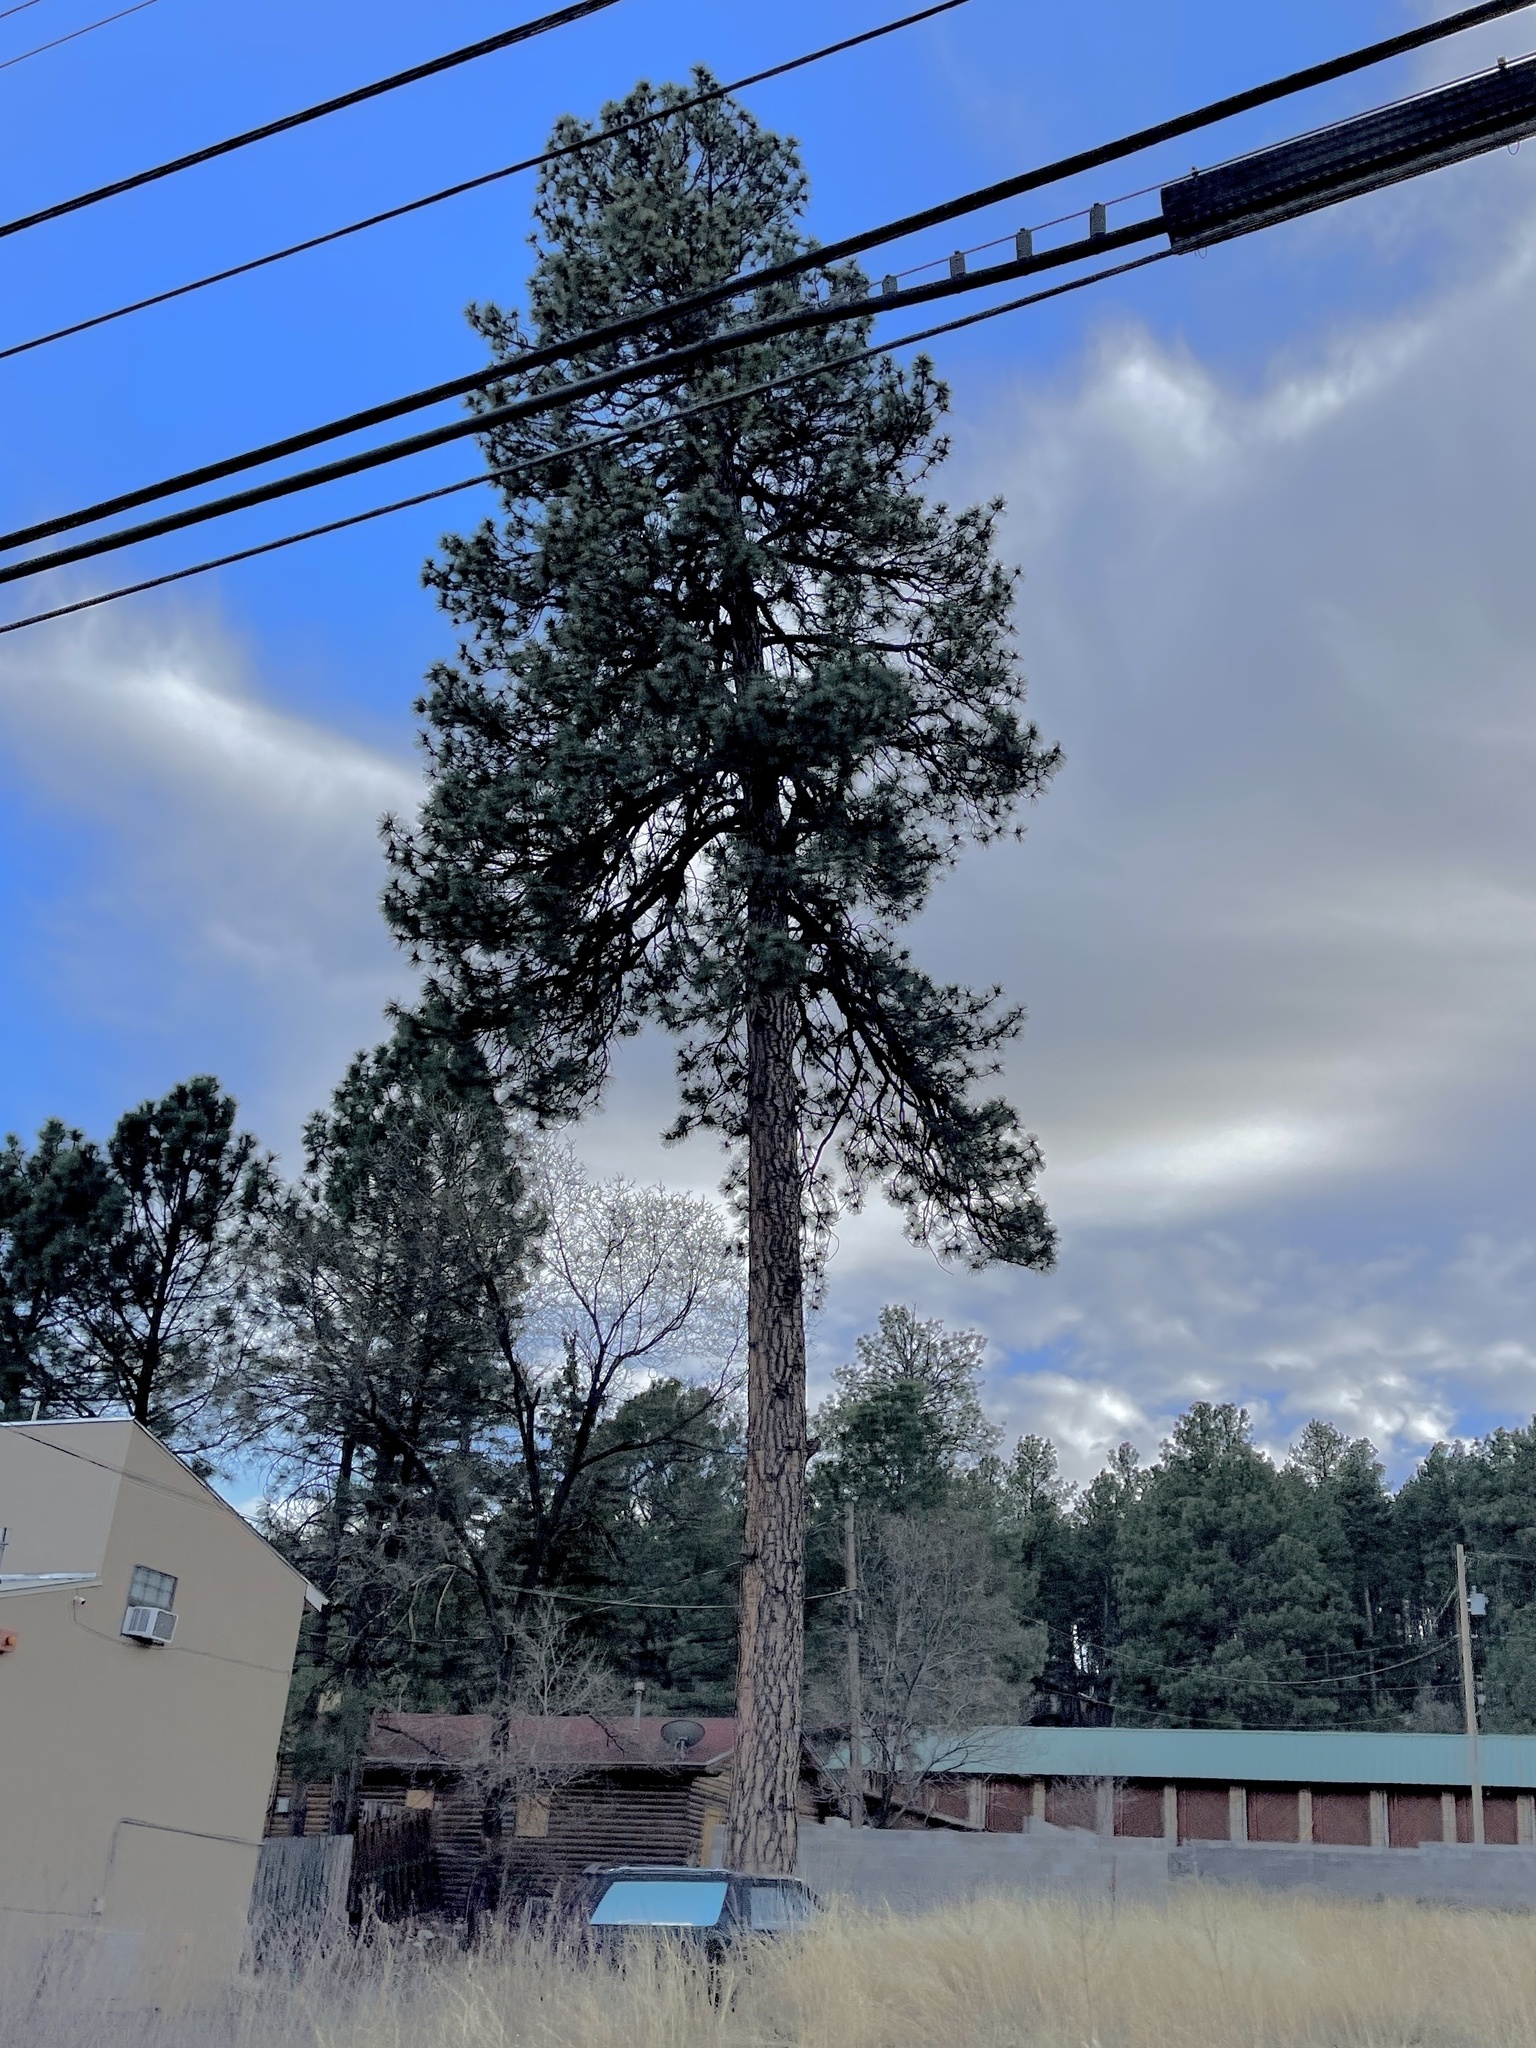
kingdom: Plantae
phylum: Tracheophyta
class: Pinopsida
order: Pinales
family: Pinaceae
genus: Pinus
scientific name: Pinus ponderosa
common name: Western yellow-pine
